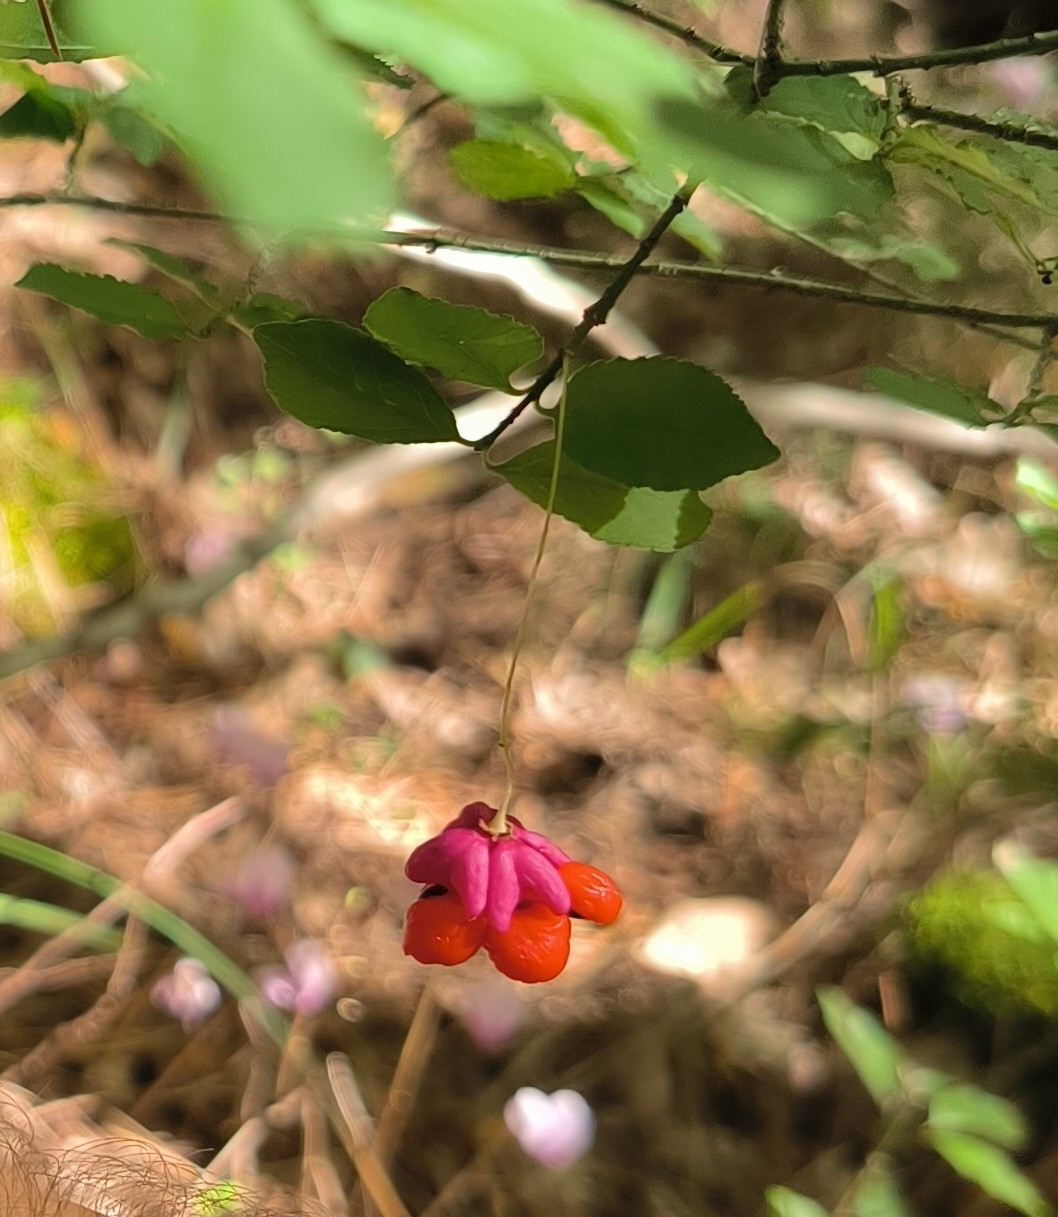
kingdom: Plantae
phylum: Tracheophyta
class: Magnoliopsida
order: Celastrales
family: Celastraceae
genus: Euonymus
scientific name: Euonymus verrucosus
